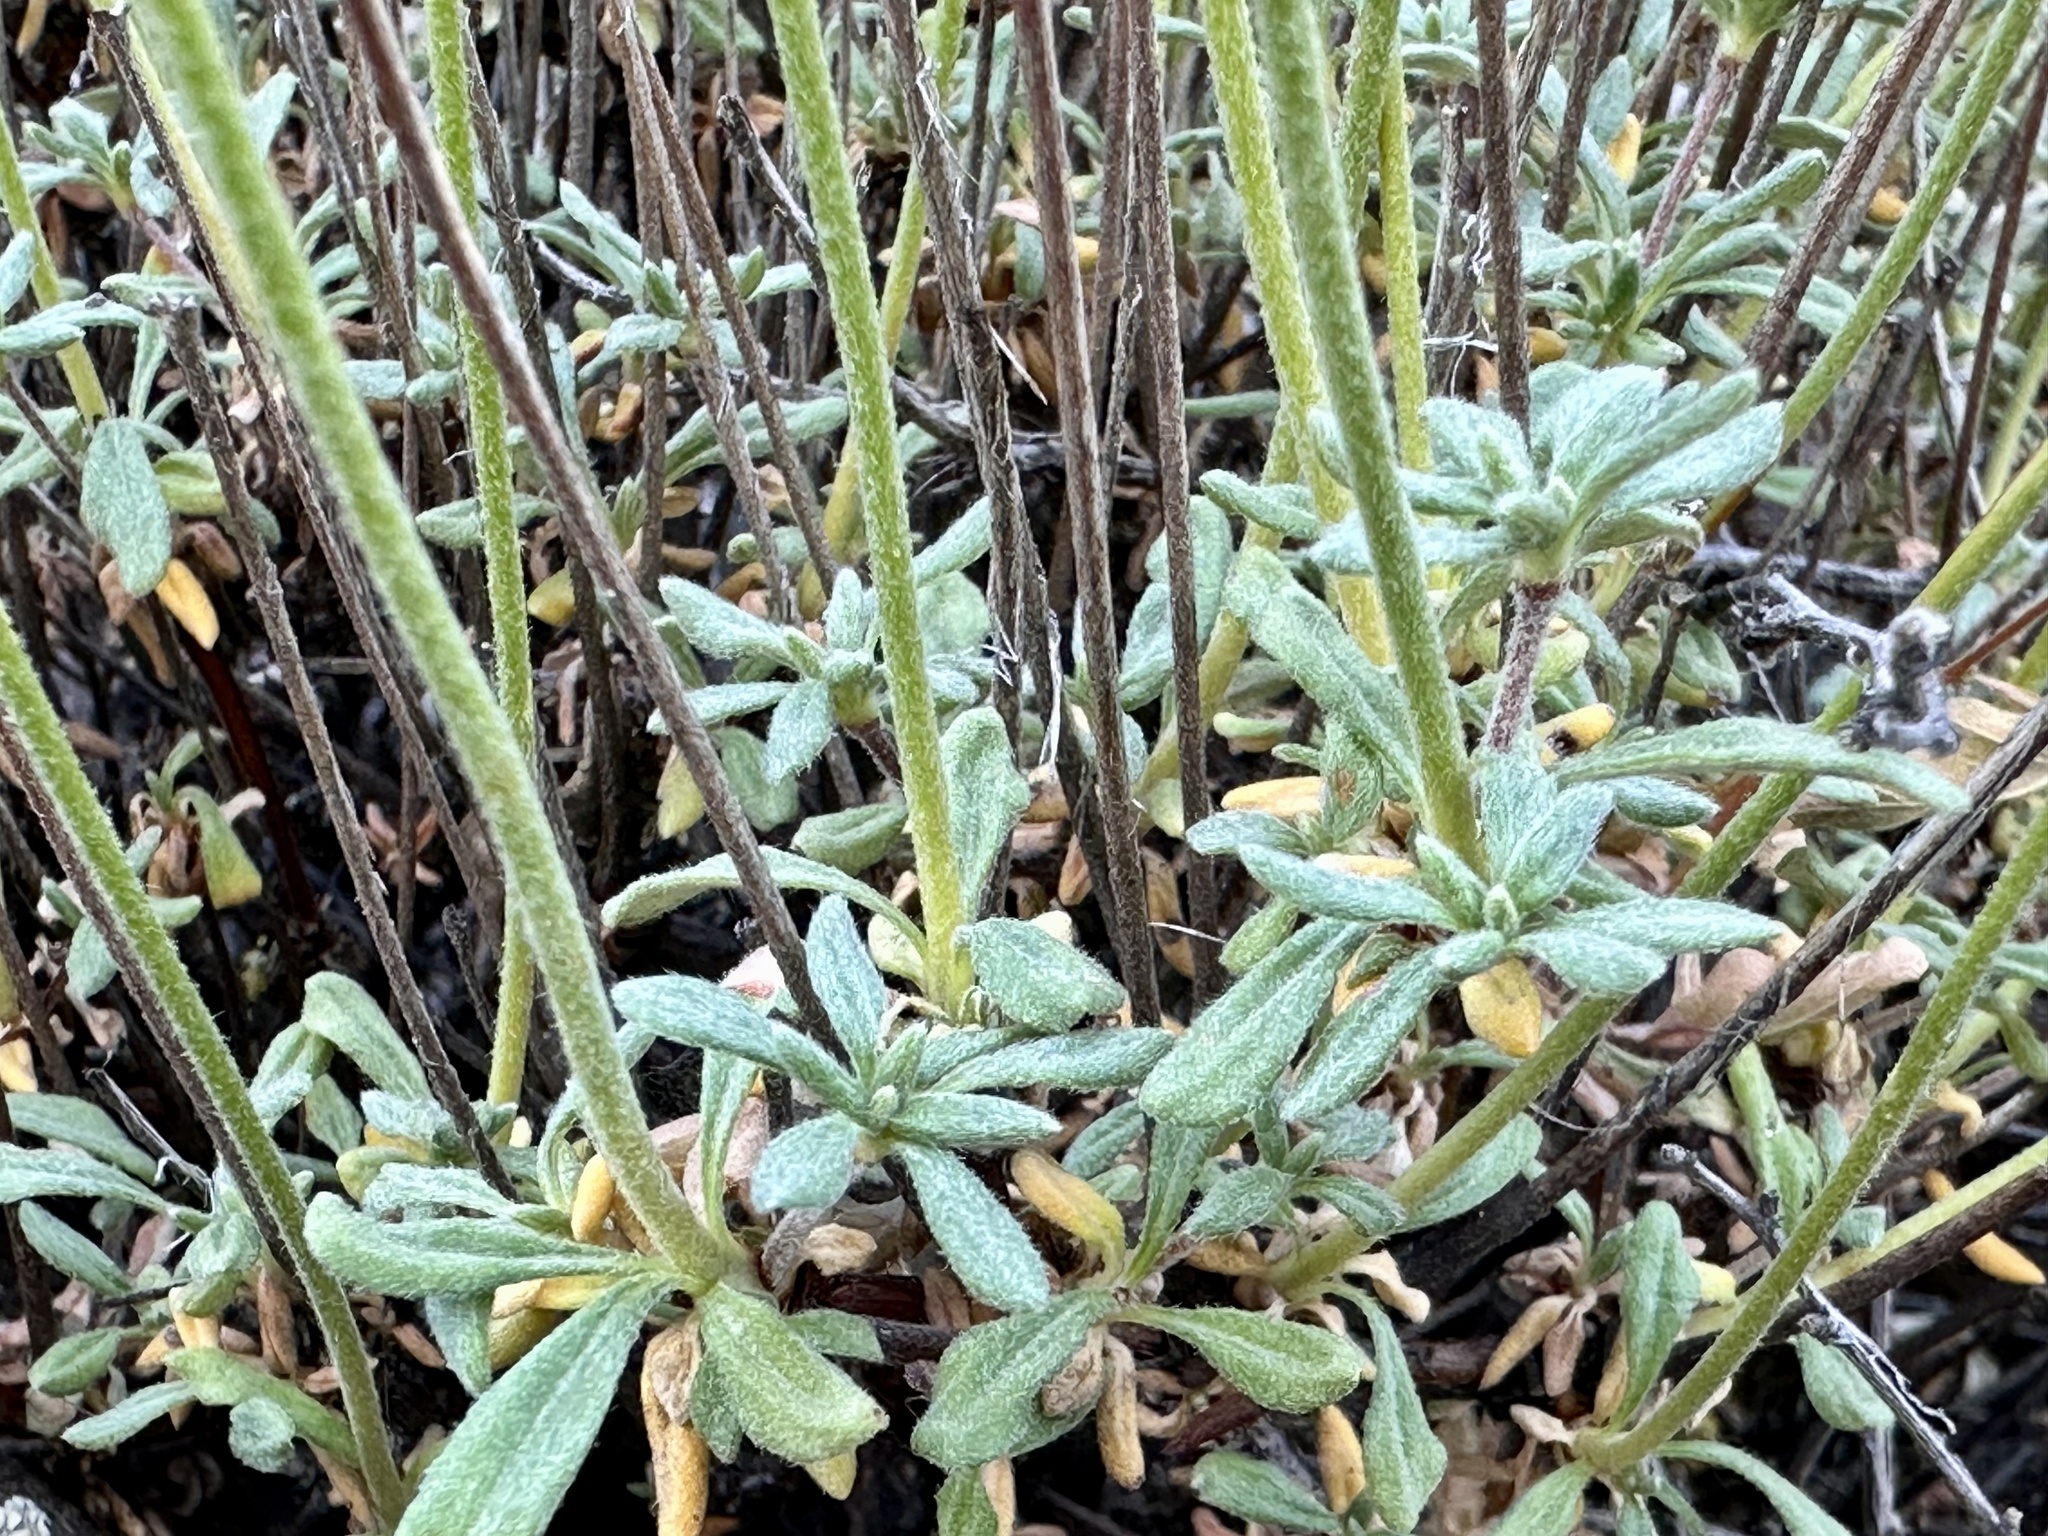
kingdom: Plantae
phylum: Tracheophyta
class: Magnoliopsida
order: Caryophyllales
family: Polygonaceae
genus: Eriogonum
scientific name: Eriogonum sphaerocephalum
